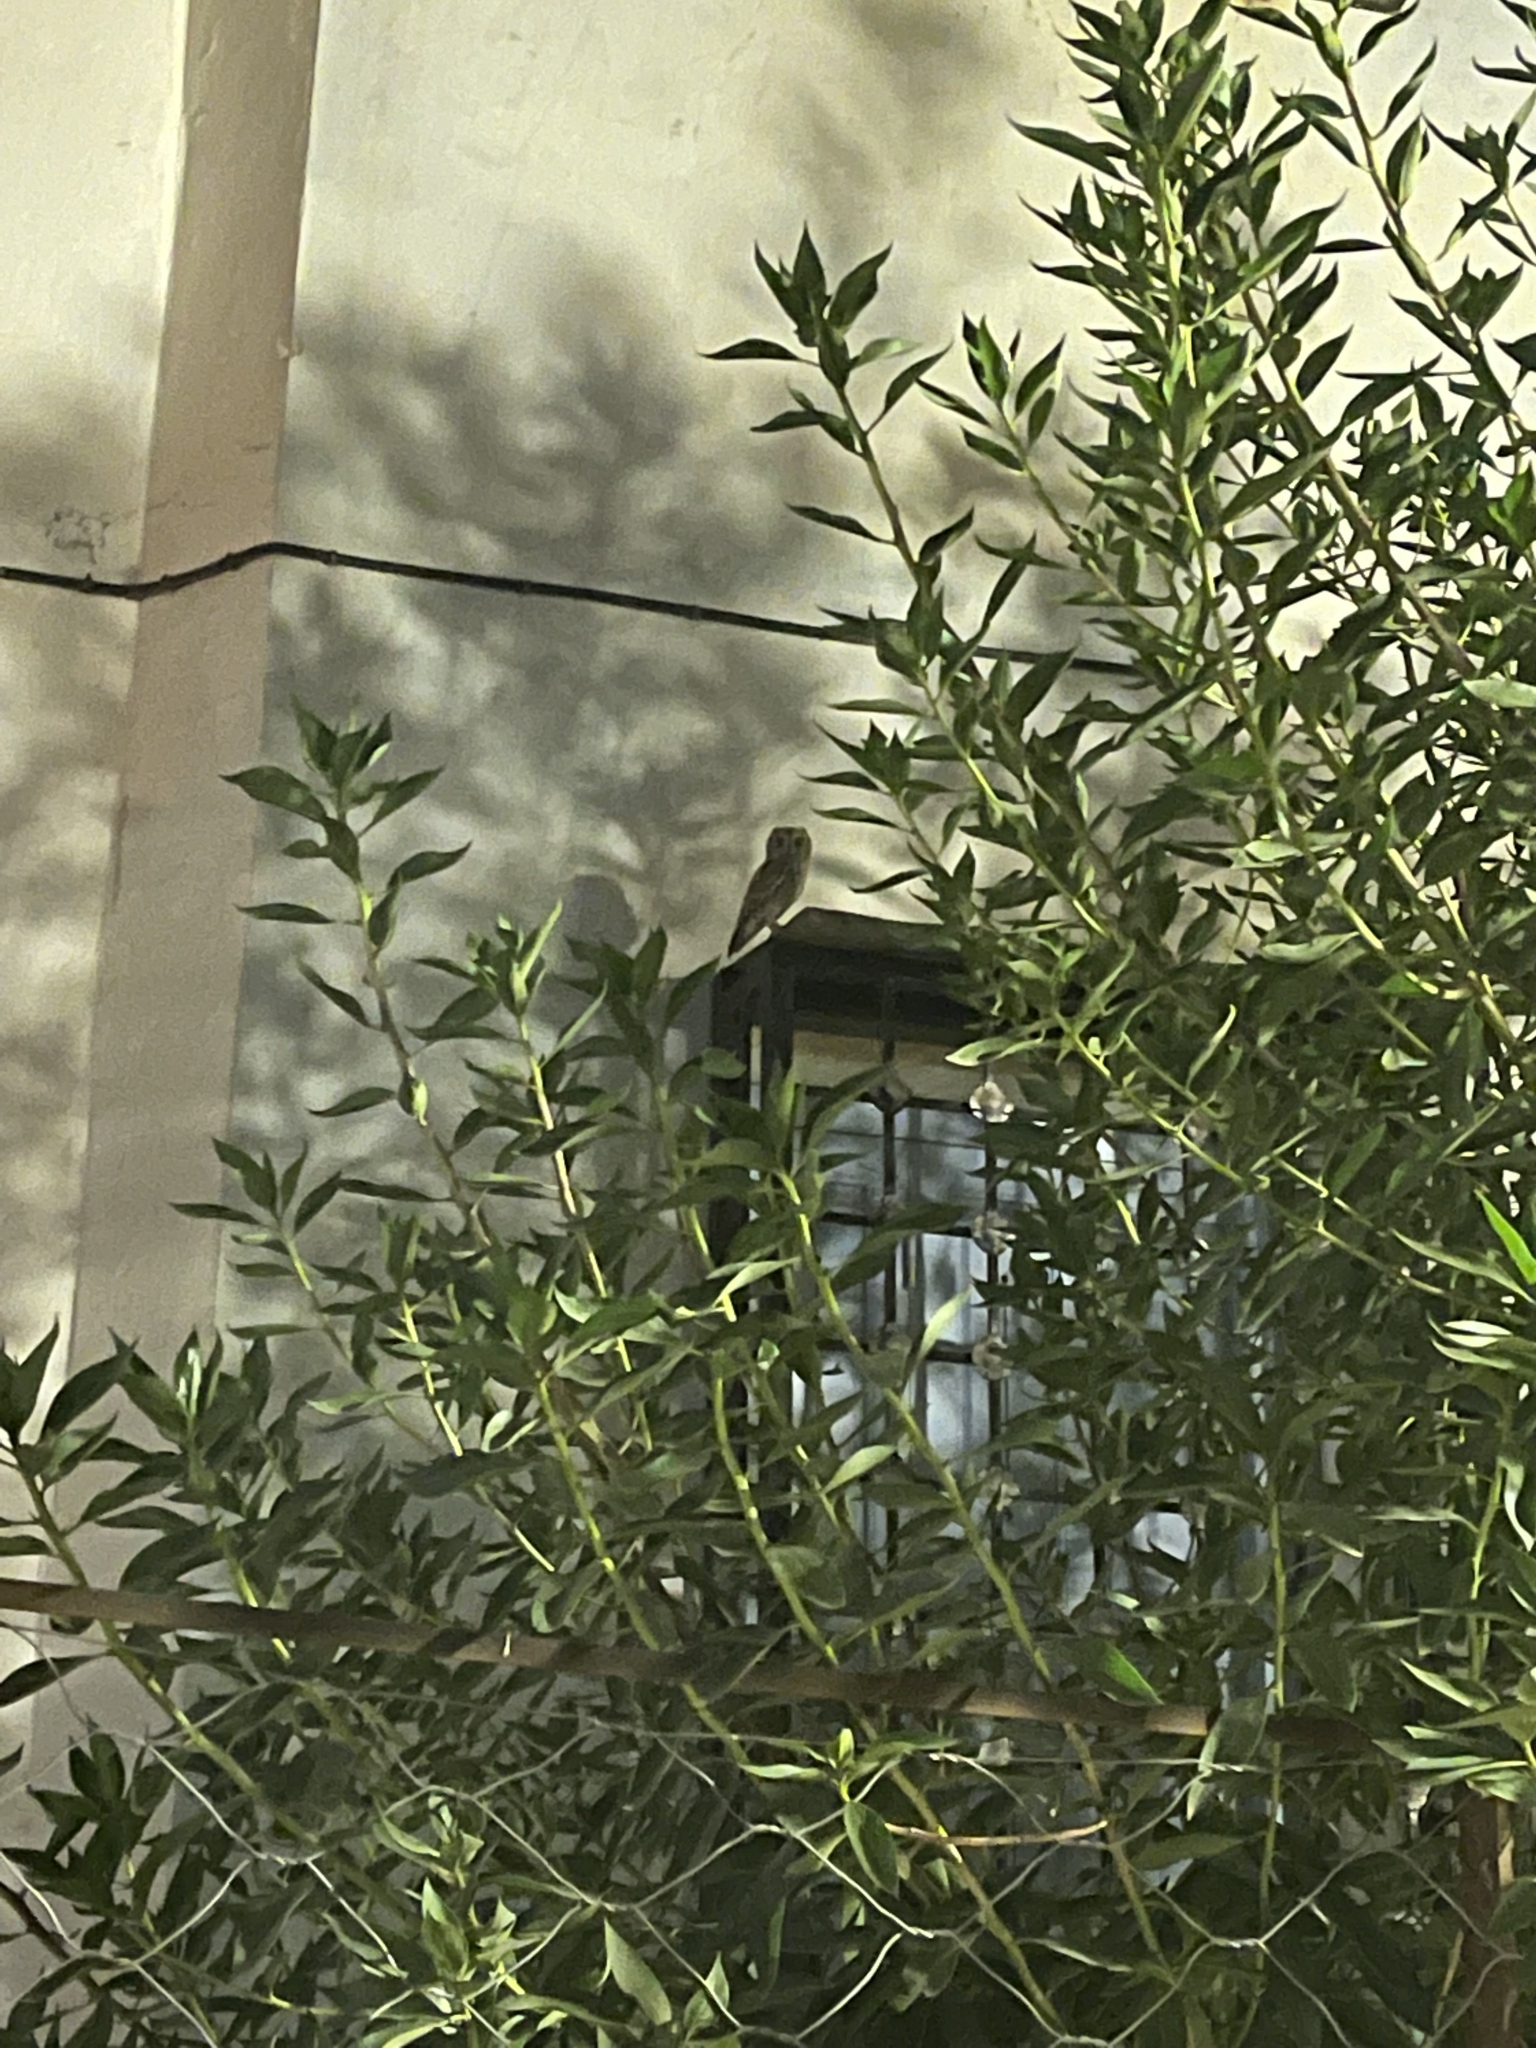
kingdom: Animalia
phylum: Chordata
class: Aves
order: Strigiformes
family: Strigidae
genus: Otus
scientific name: Otus scops
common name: Eurasian scops owl
